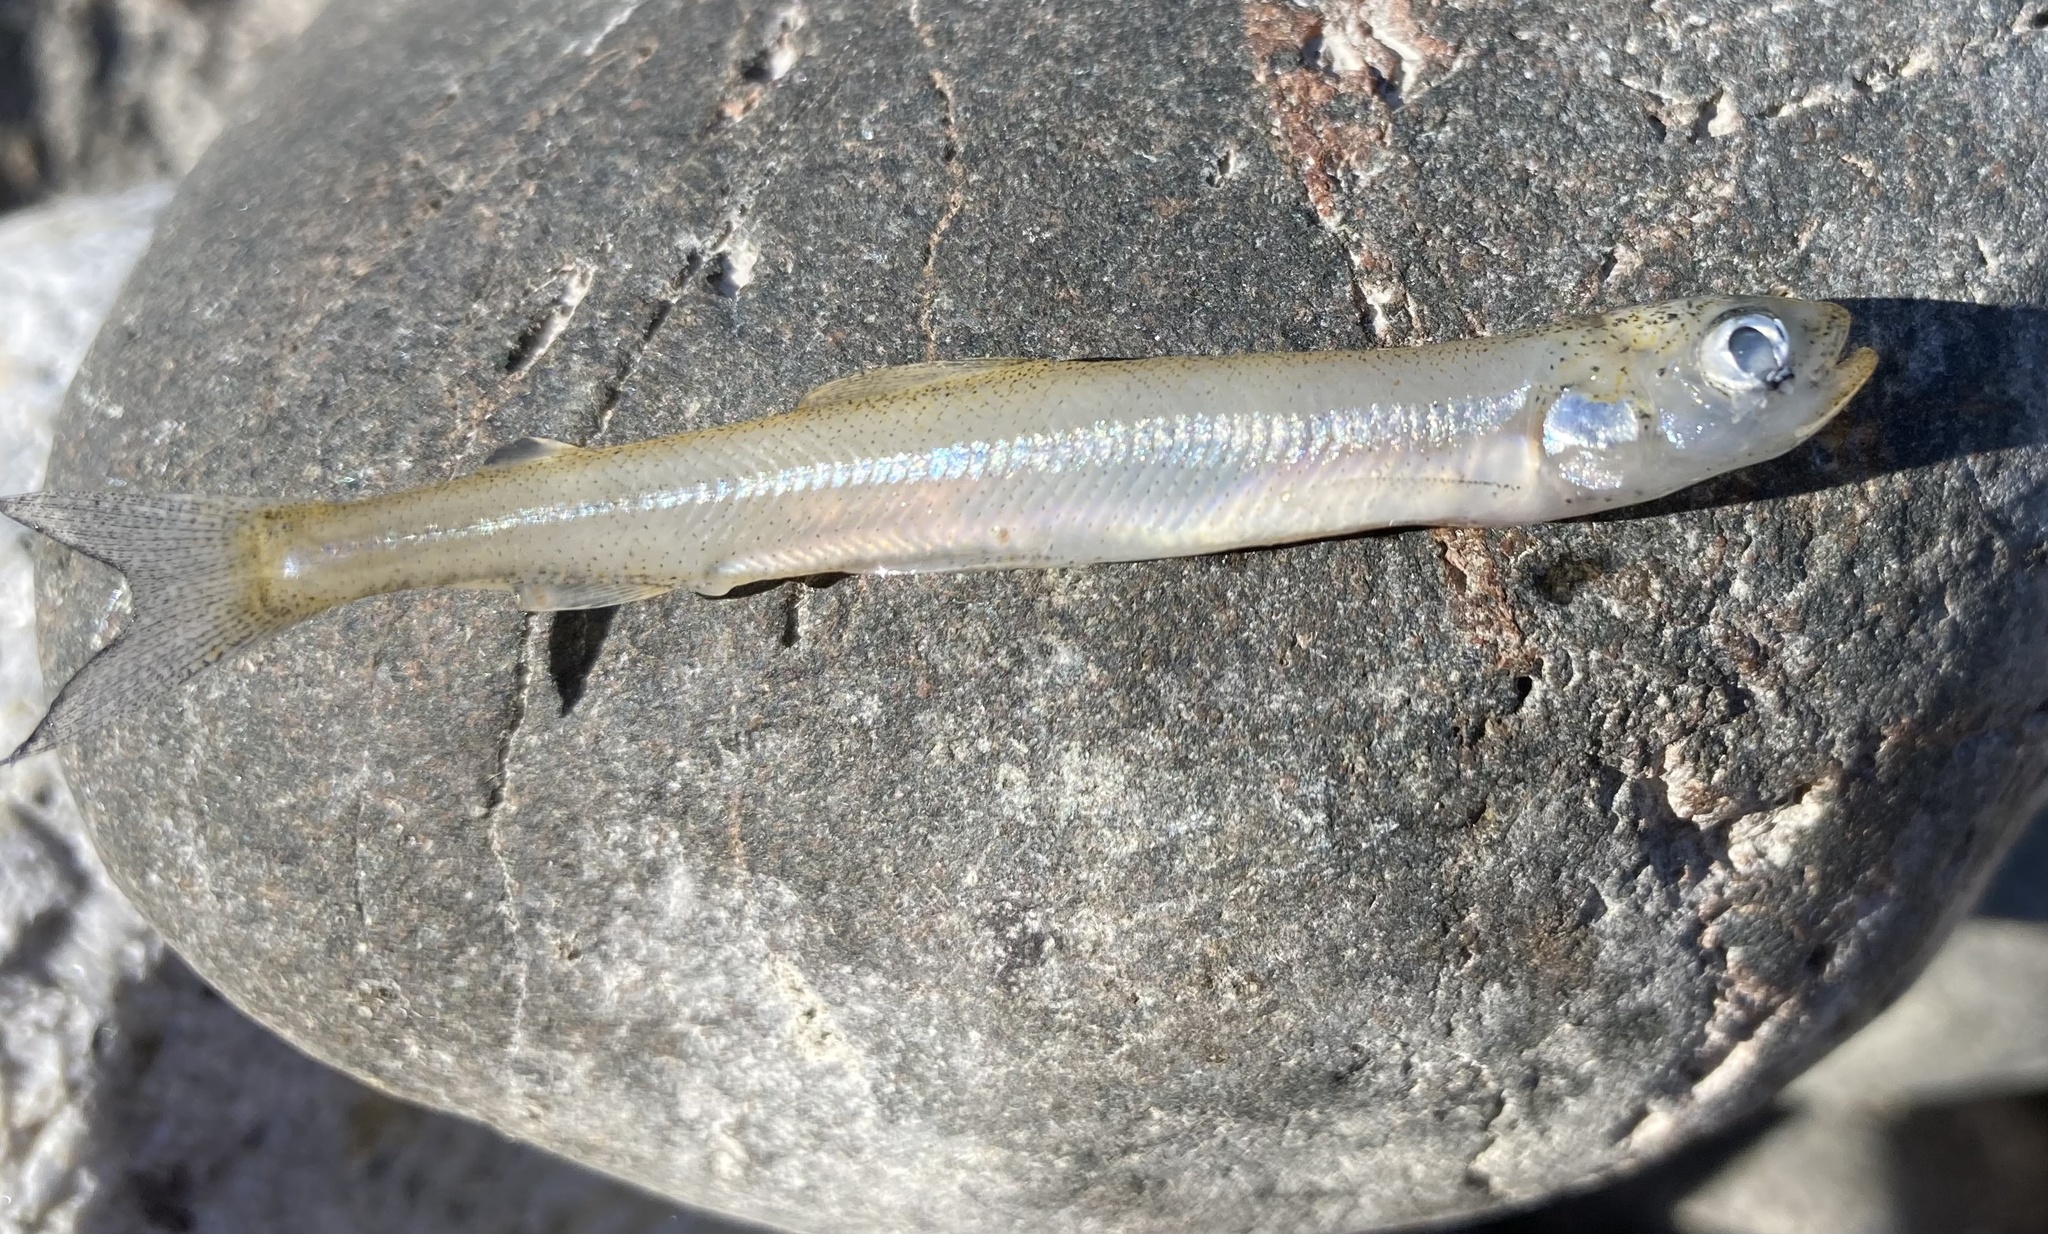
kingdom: Animalia
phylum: Chordata
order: Osmeriformes
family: Osmeridae
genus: Osmerus
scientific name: Osmerus mordax
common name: Rainbow smelt
